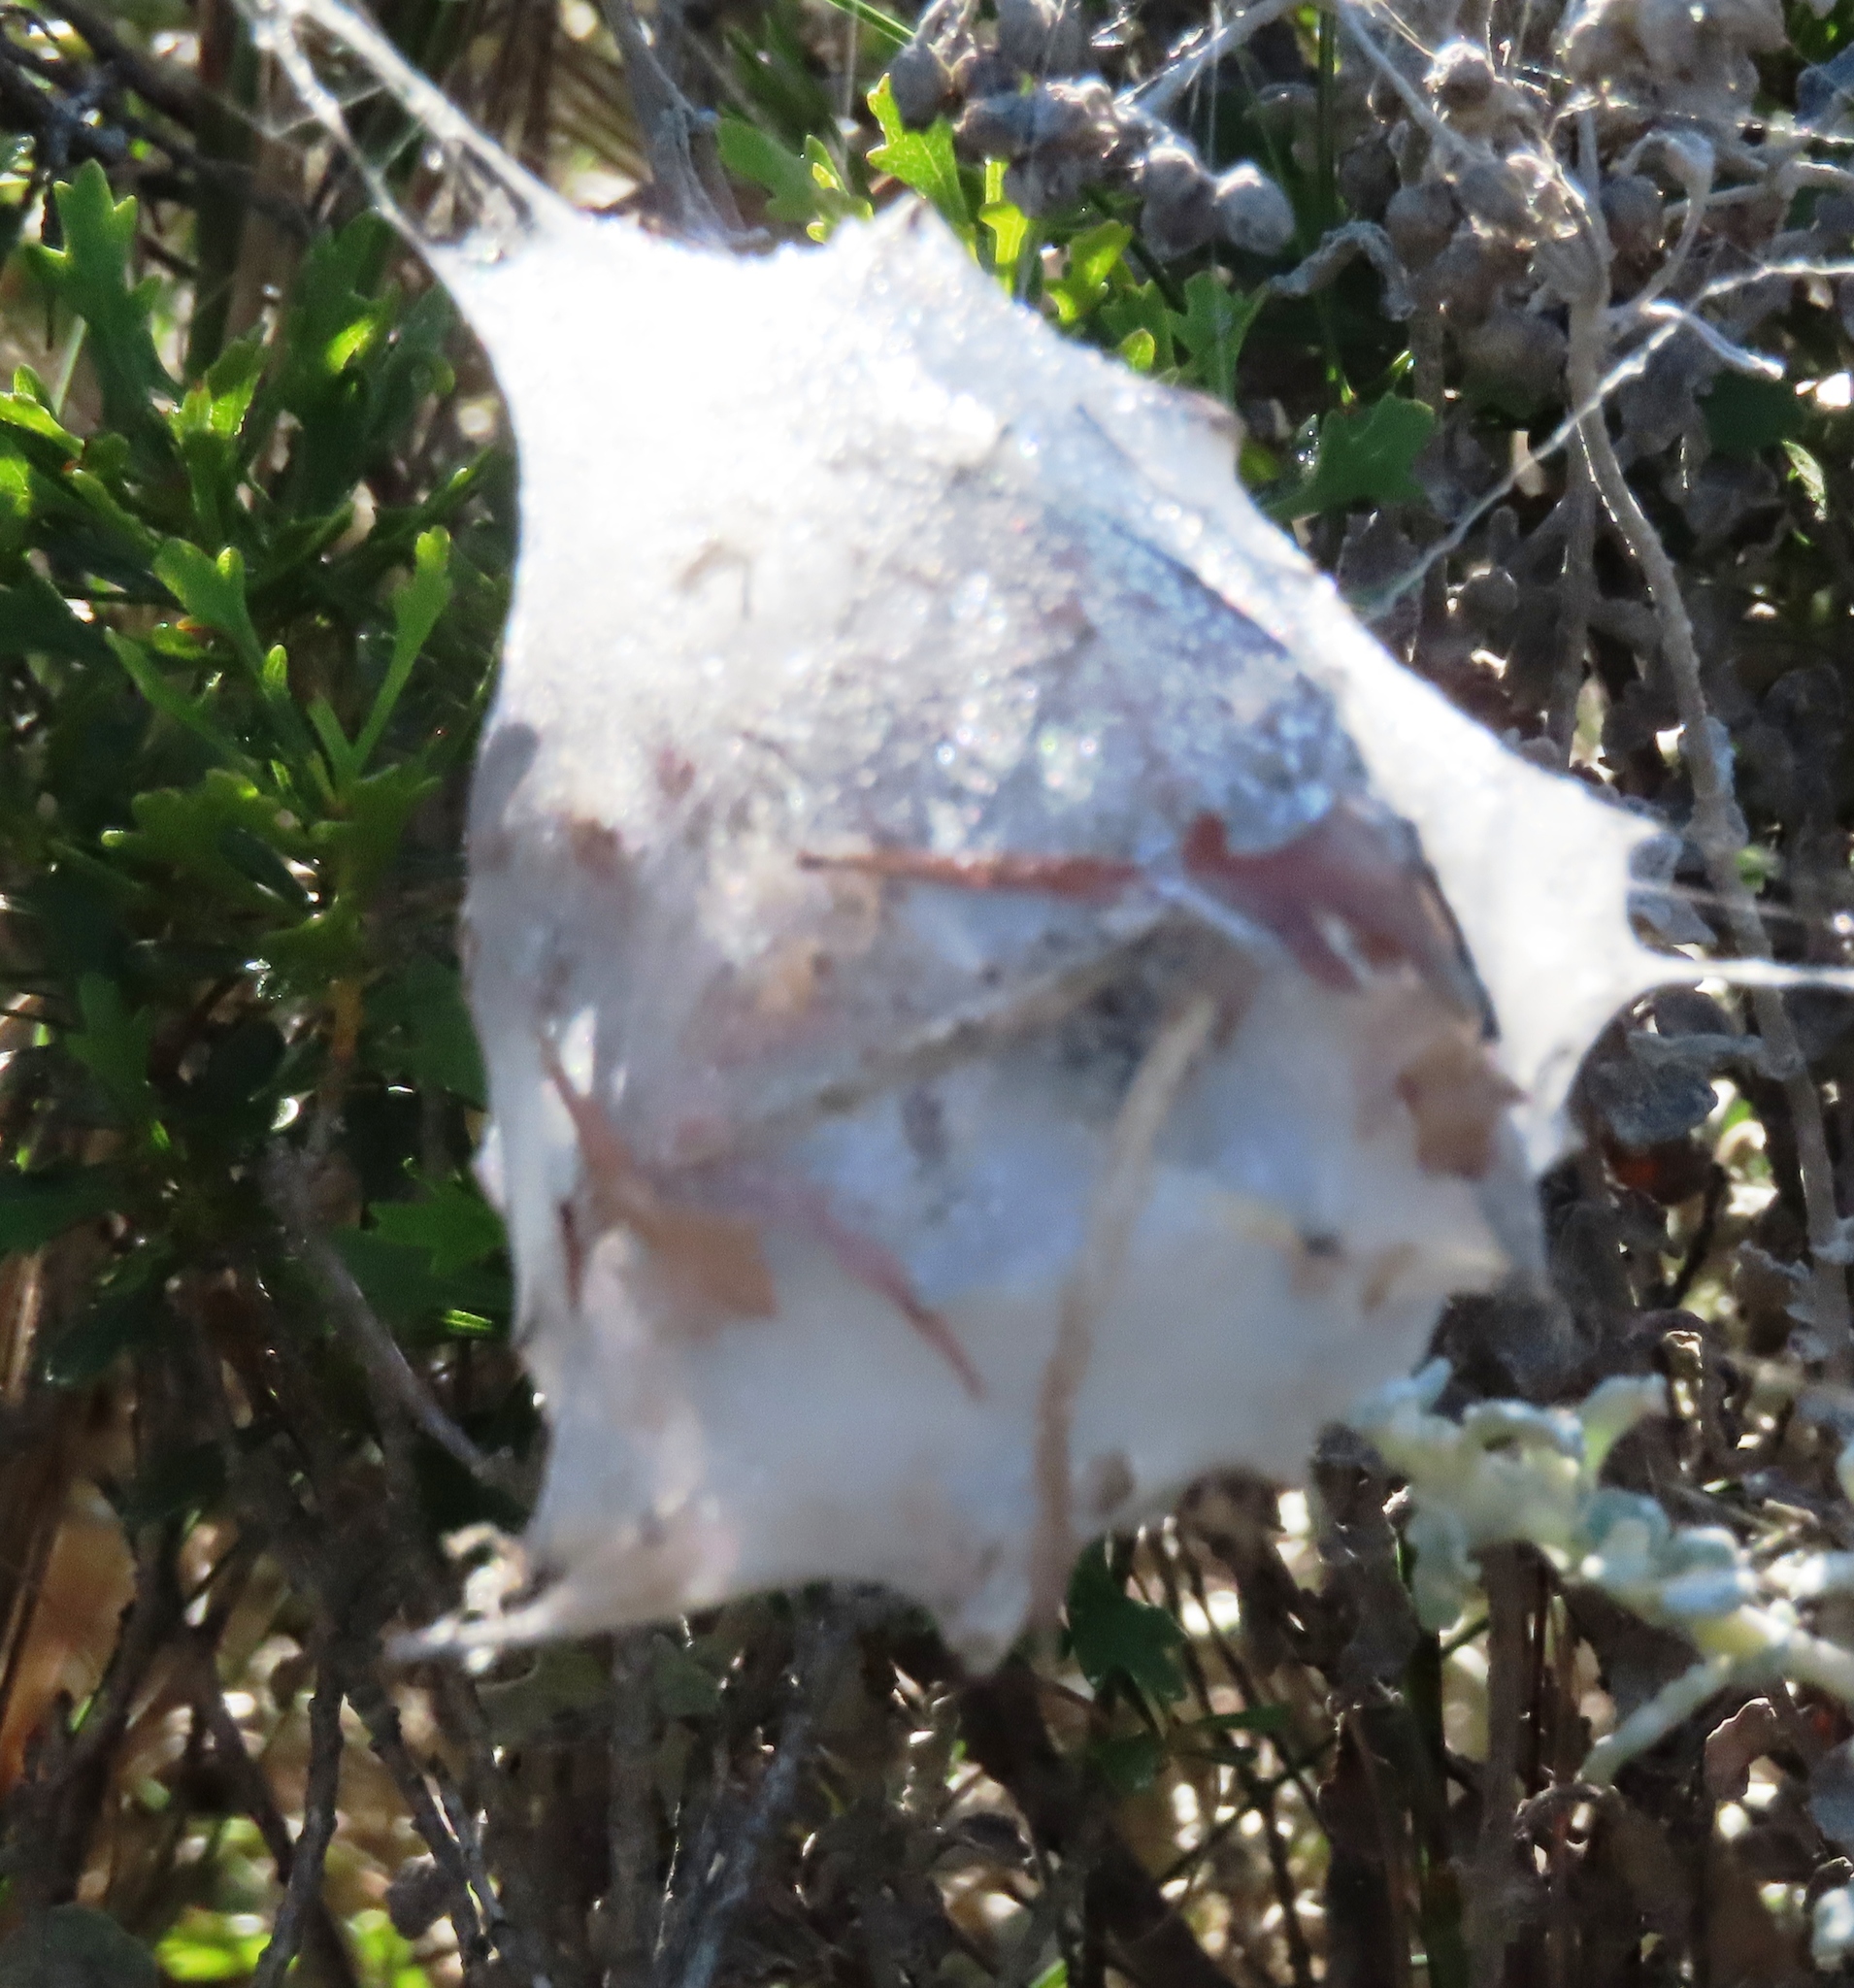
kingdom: Animalia
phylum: Arthropoda
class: Arachnida
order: Araneae
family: Sparassidae
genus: Palystes
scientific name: Palystes superciliosus
